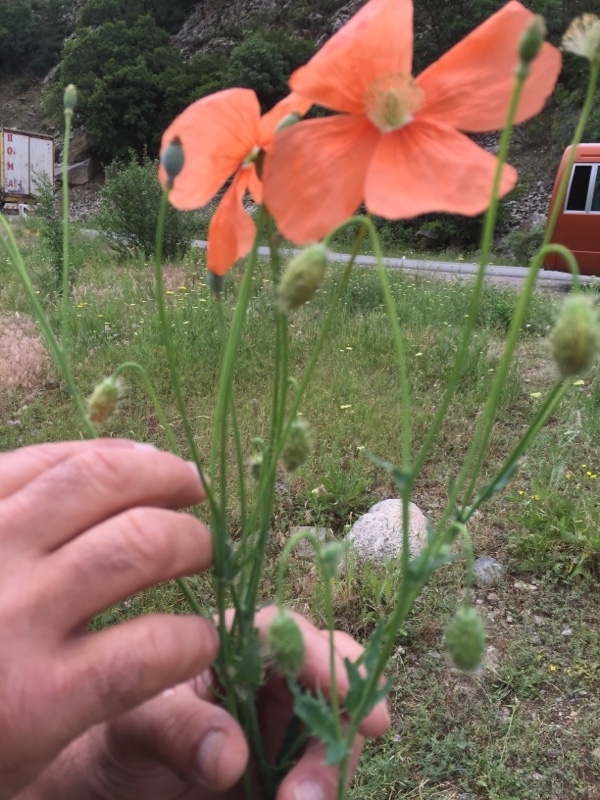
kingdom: Plantae
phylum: Tracheophyta
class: Magnoliopsida
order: Ranunculales
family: Papaveraceae
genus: Papaver
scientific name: Papaver armeniacum
